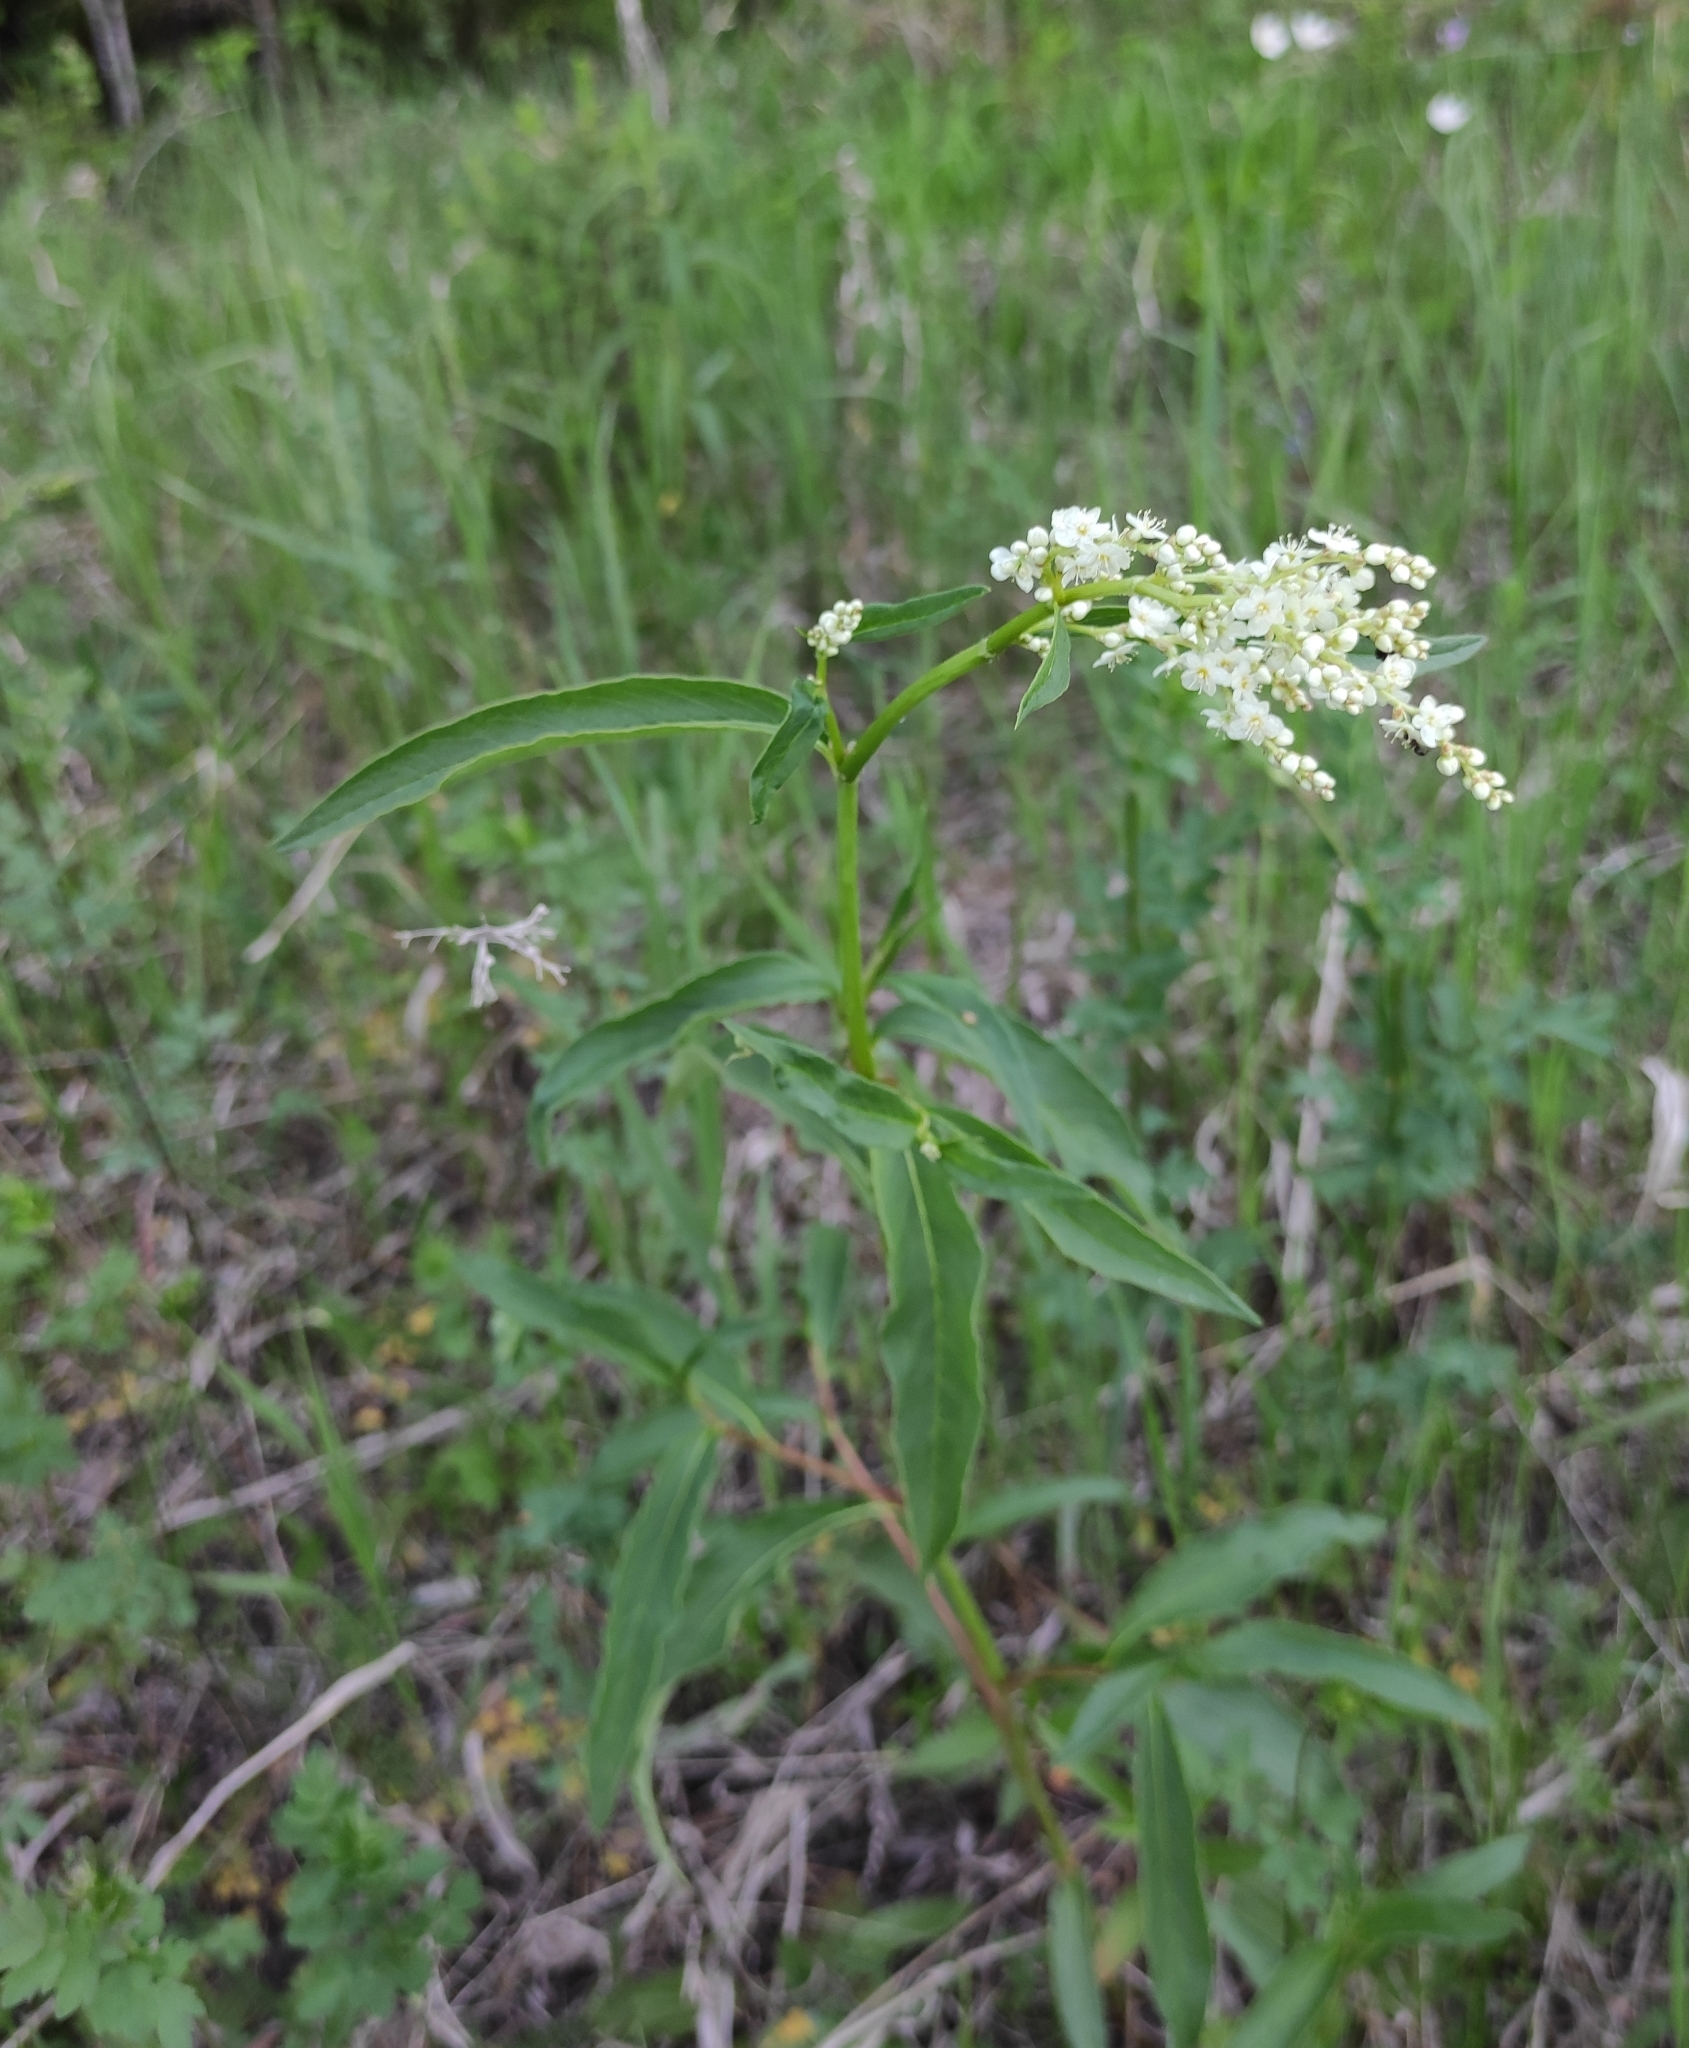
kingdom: Plantae
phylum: Tracheophyta
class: Magnoliopsida
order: Caryophyllales
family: Polygonaceae
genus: Koenigia
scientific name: Koenigia alpina
